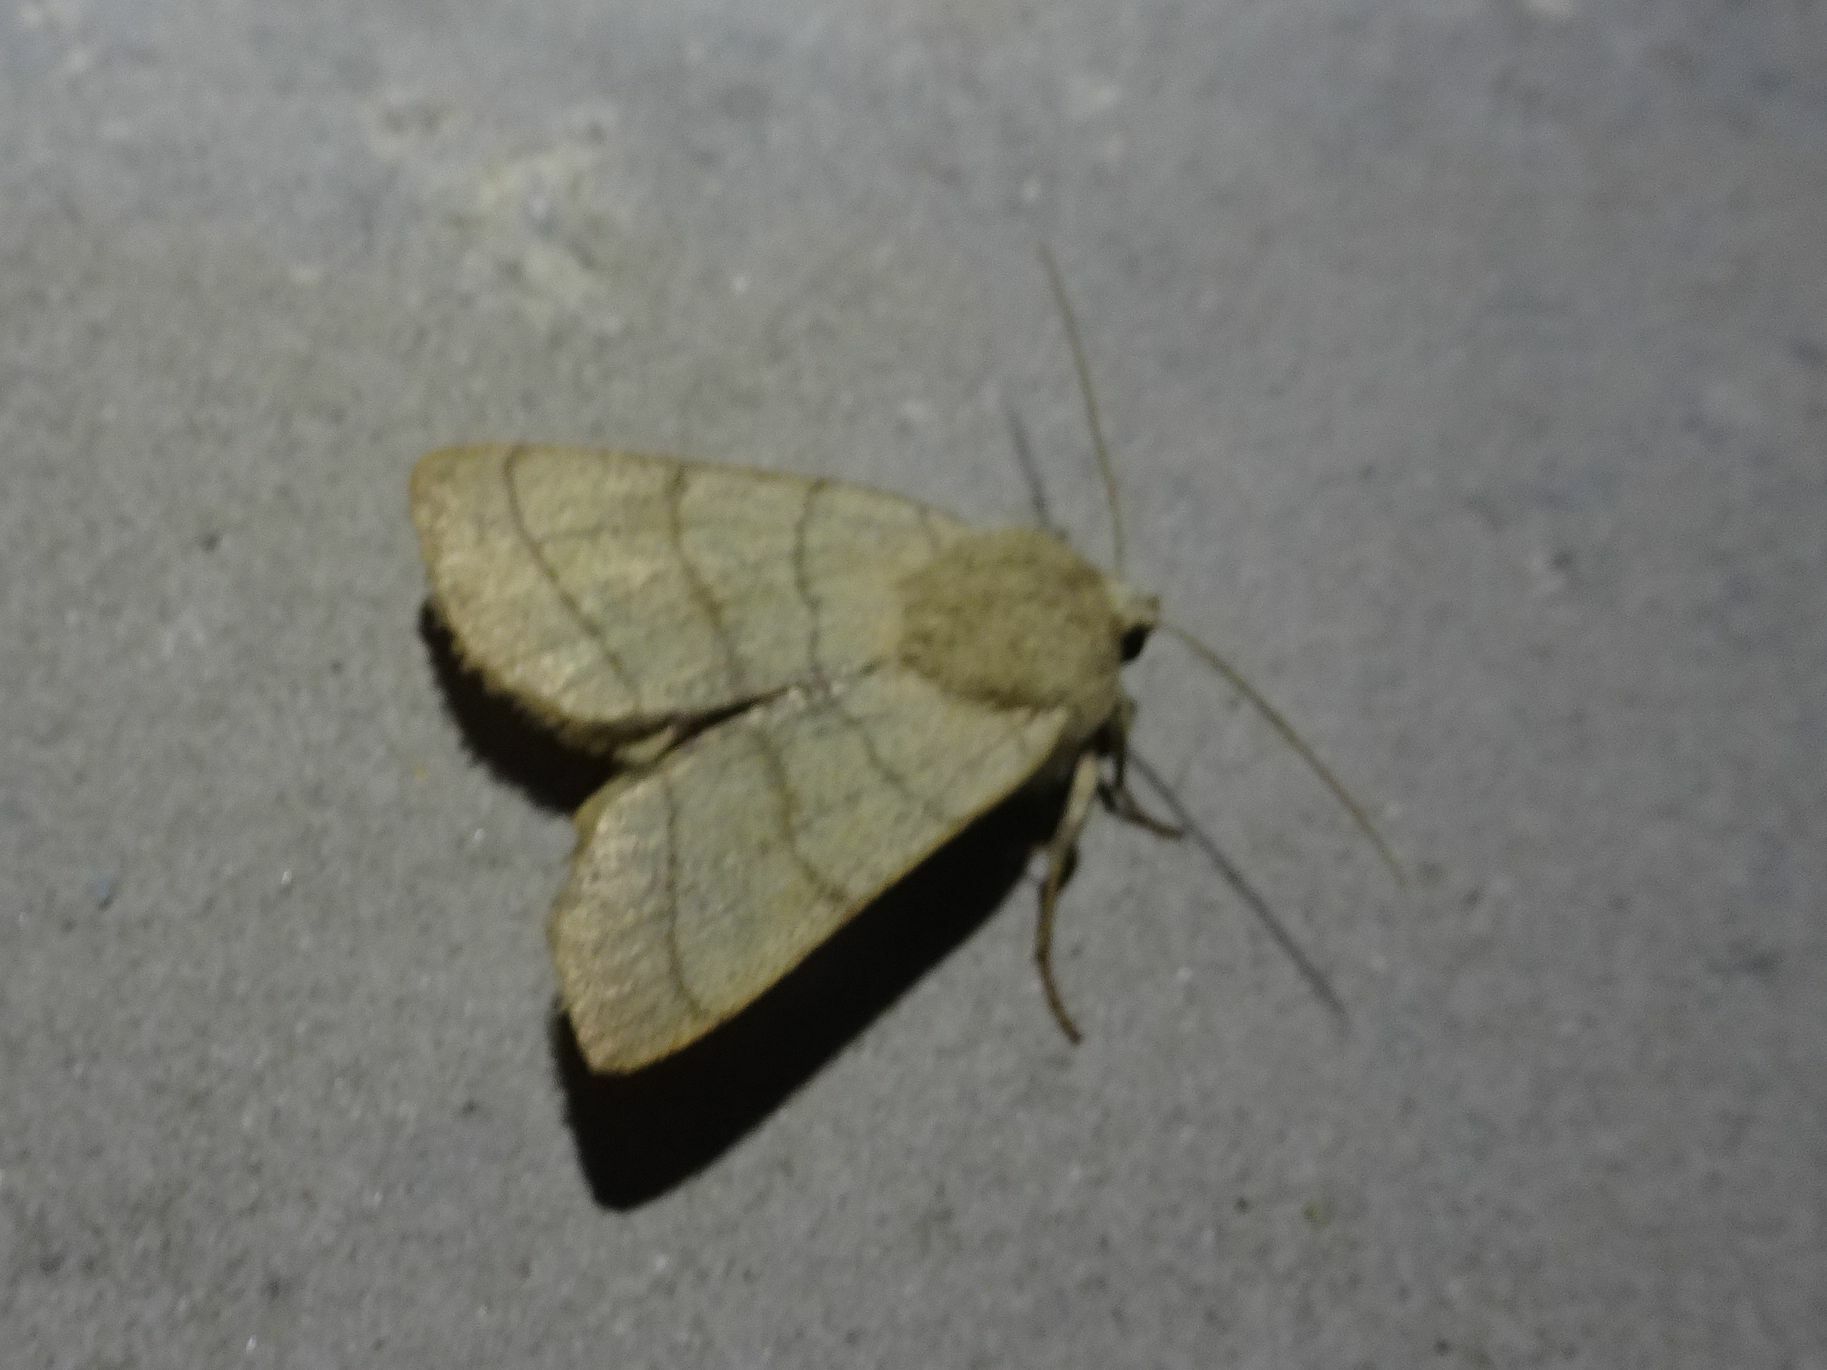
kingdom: Animalia
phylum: Arthropoda
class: Insecta
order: Lepidoptera
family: Noctuidae
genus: Charanyca
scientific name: Charanyca trigrammica
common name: Treble lines
